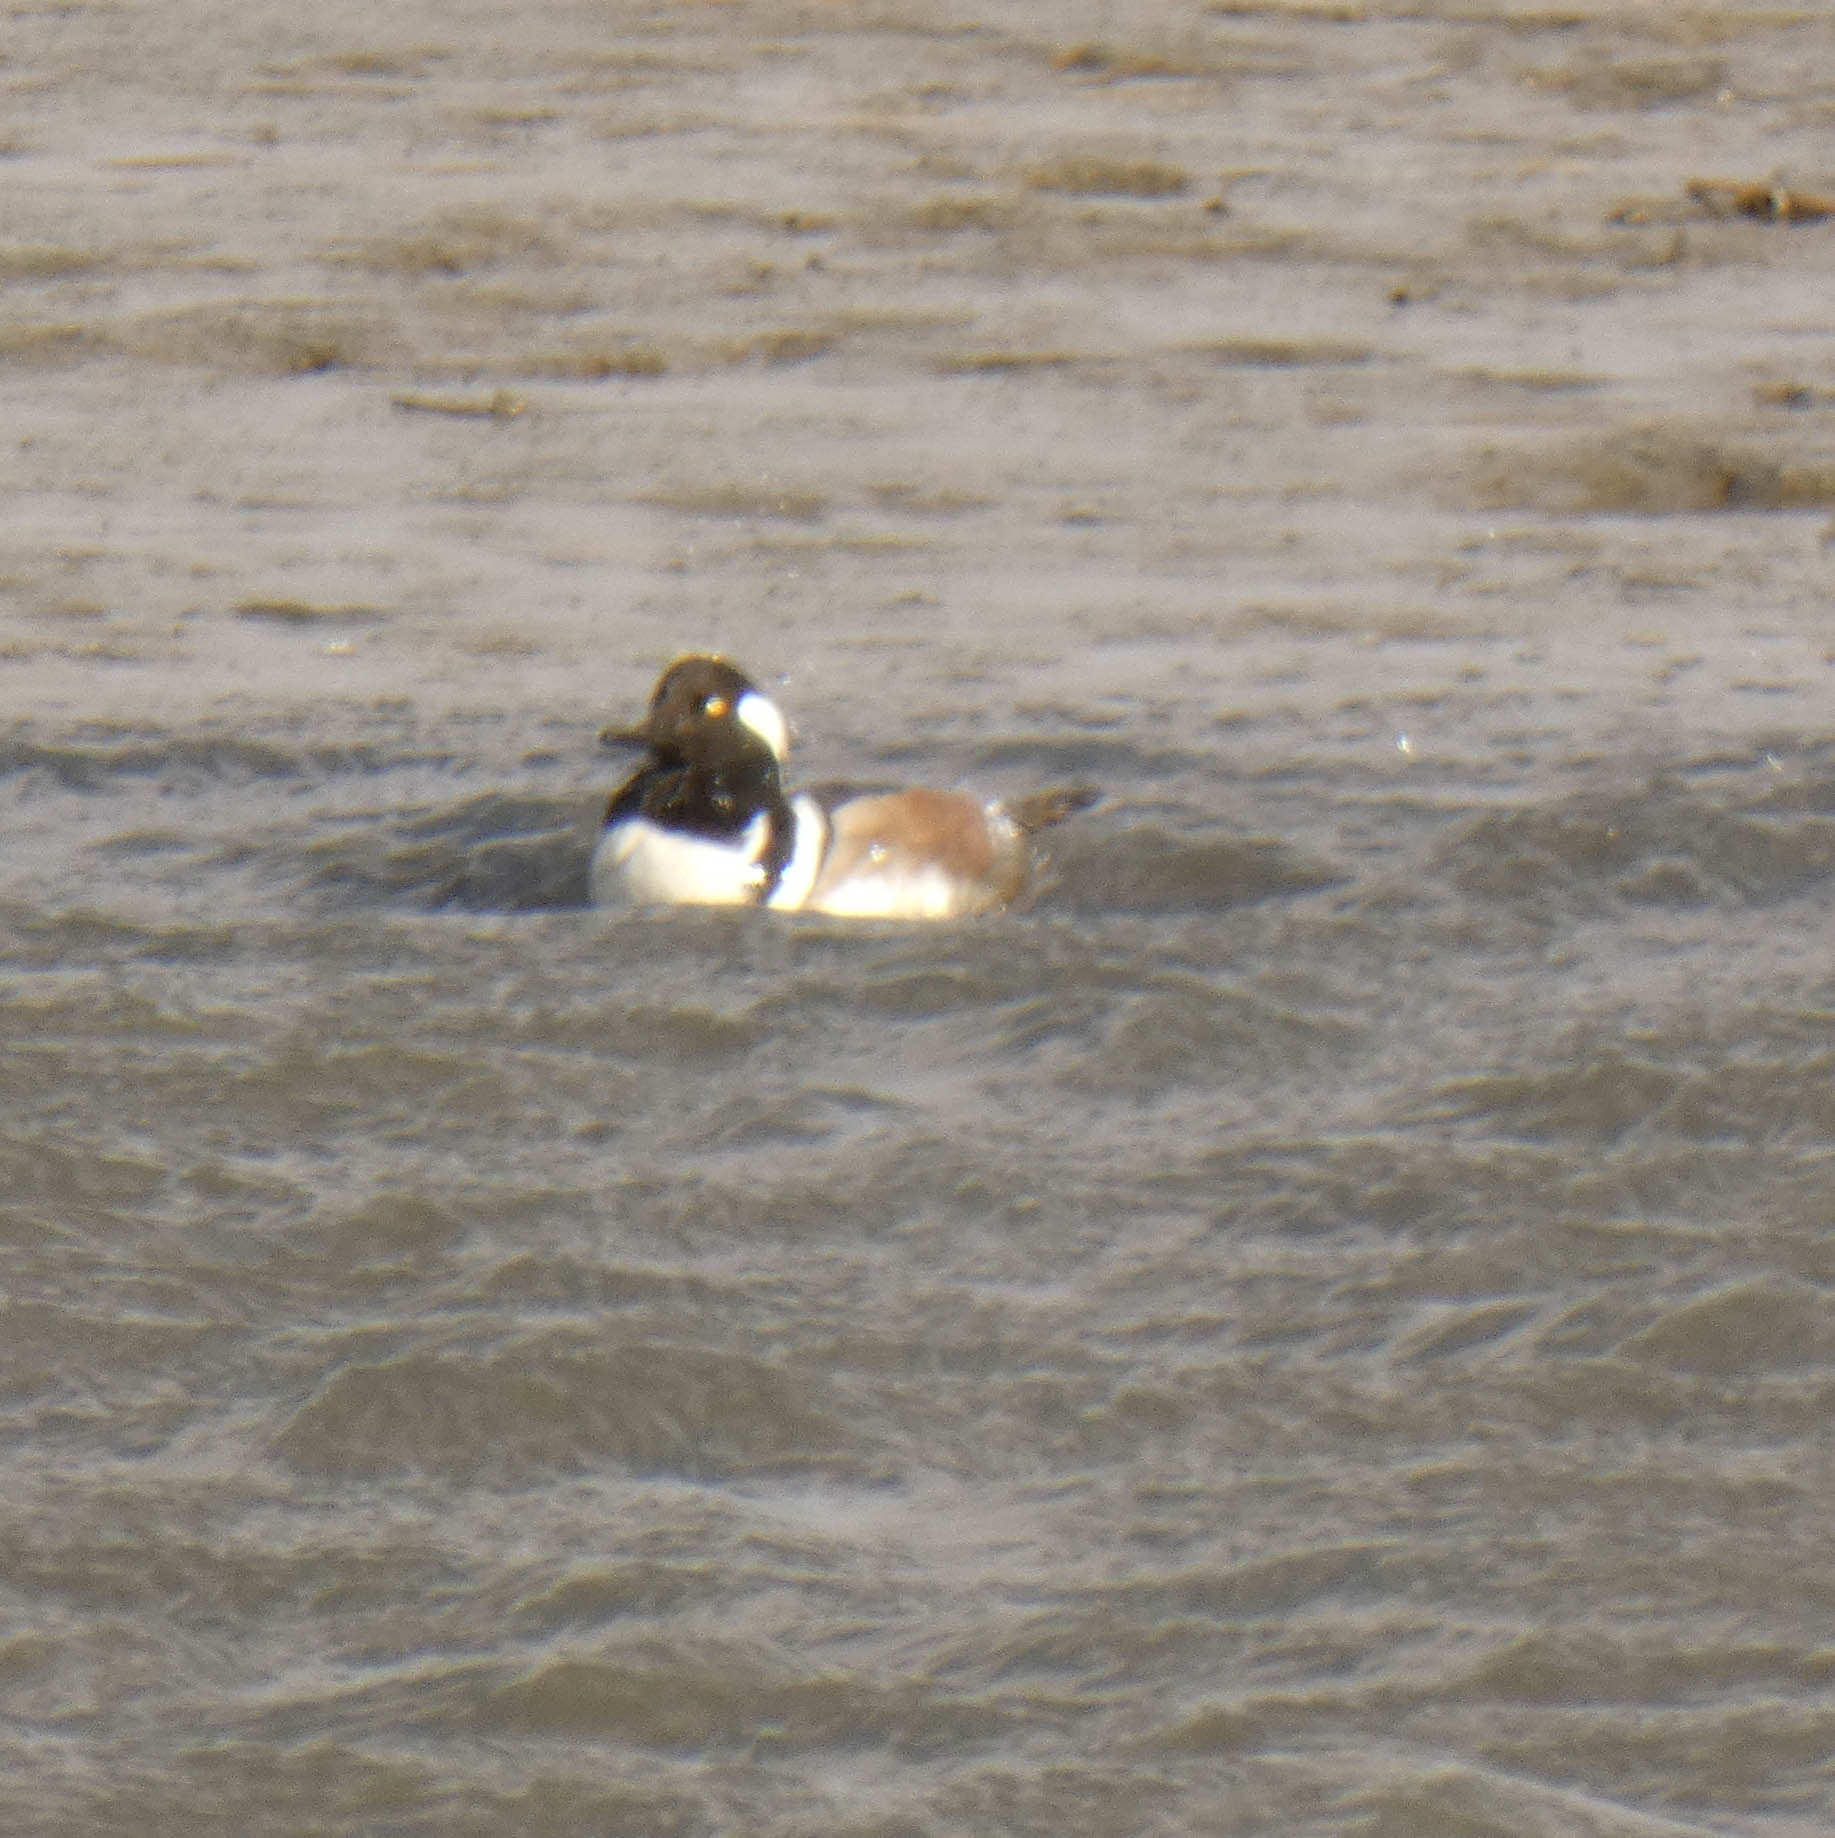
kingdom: Animalia
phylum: Chordata
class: Aves
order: Anseriformes
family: Anatidae
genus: Lophodytes
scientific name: Lophodytes cucullatus
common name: Hooded merganser
